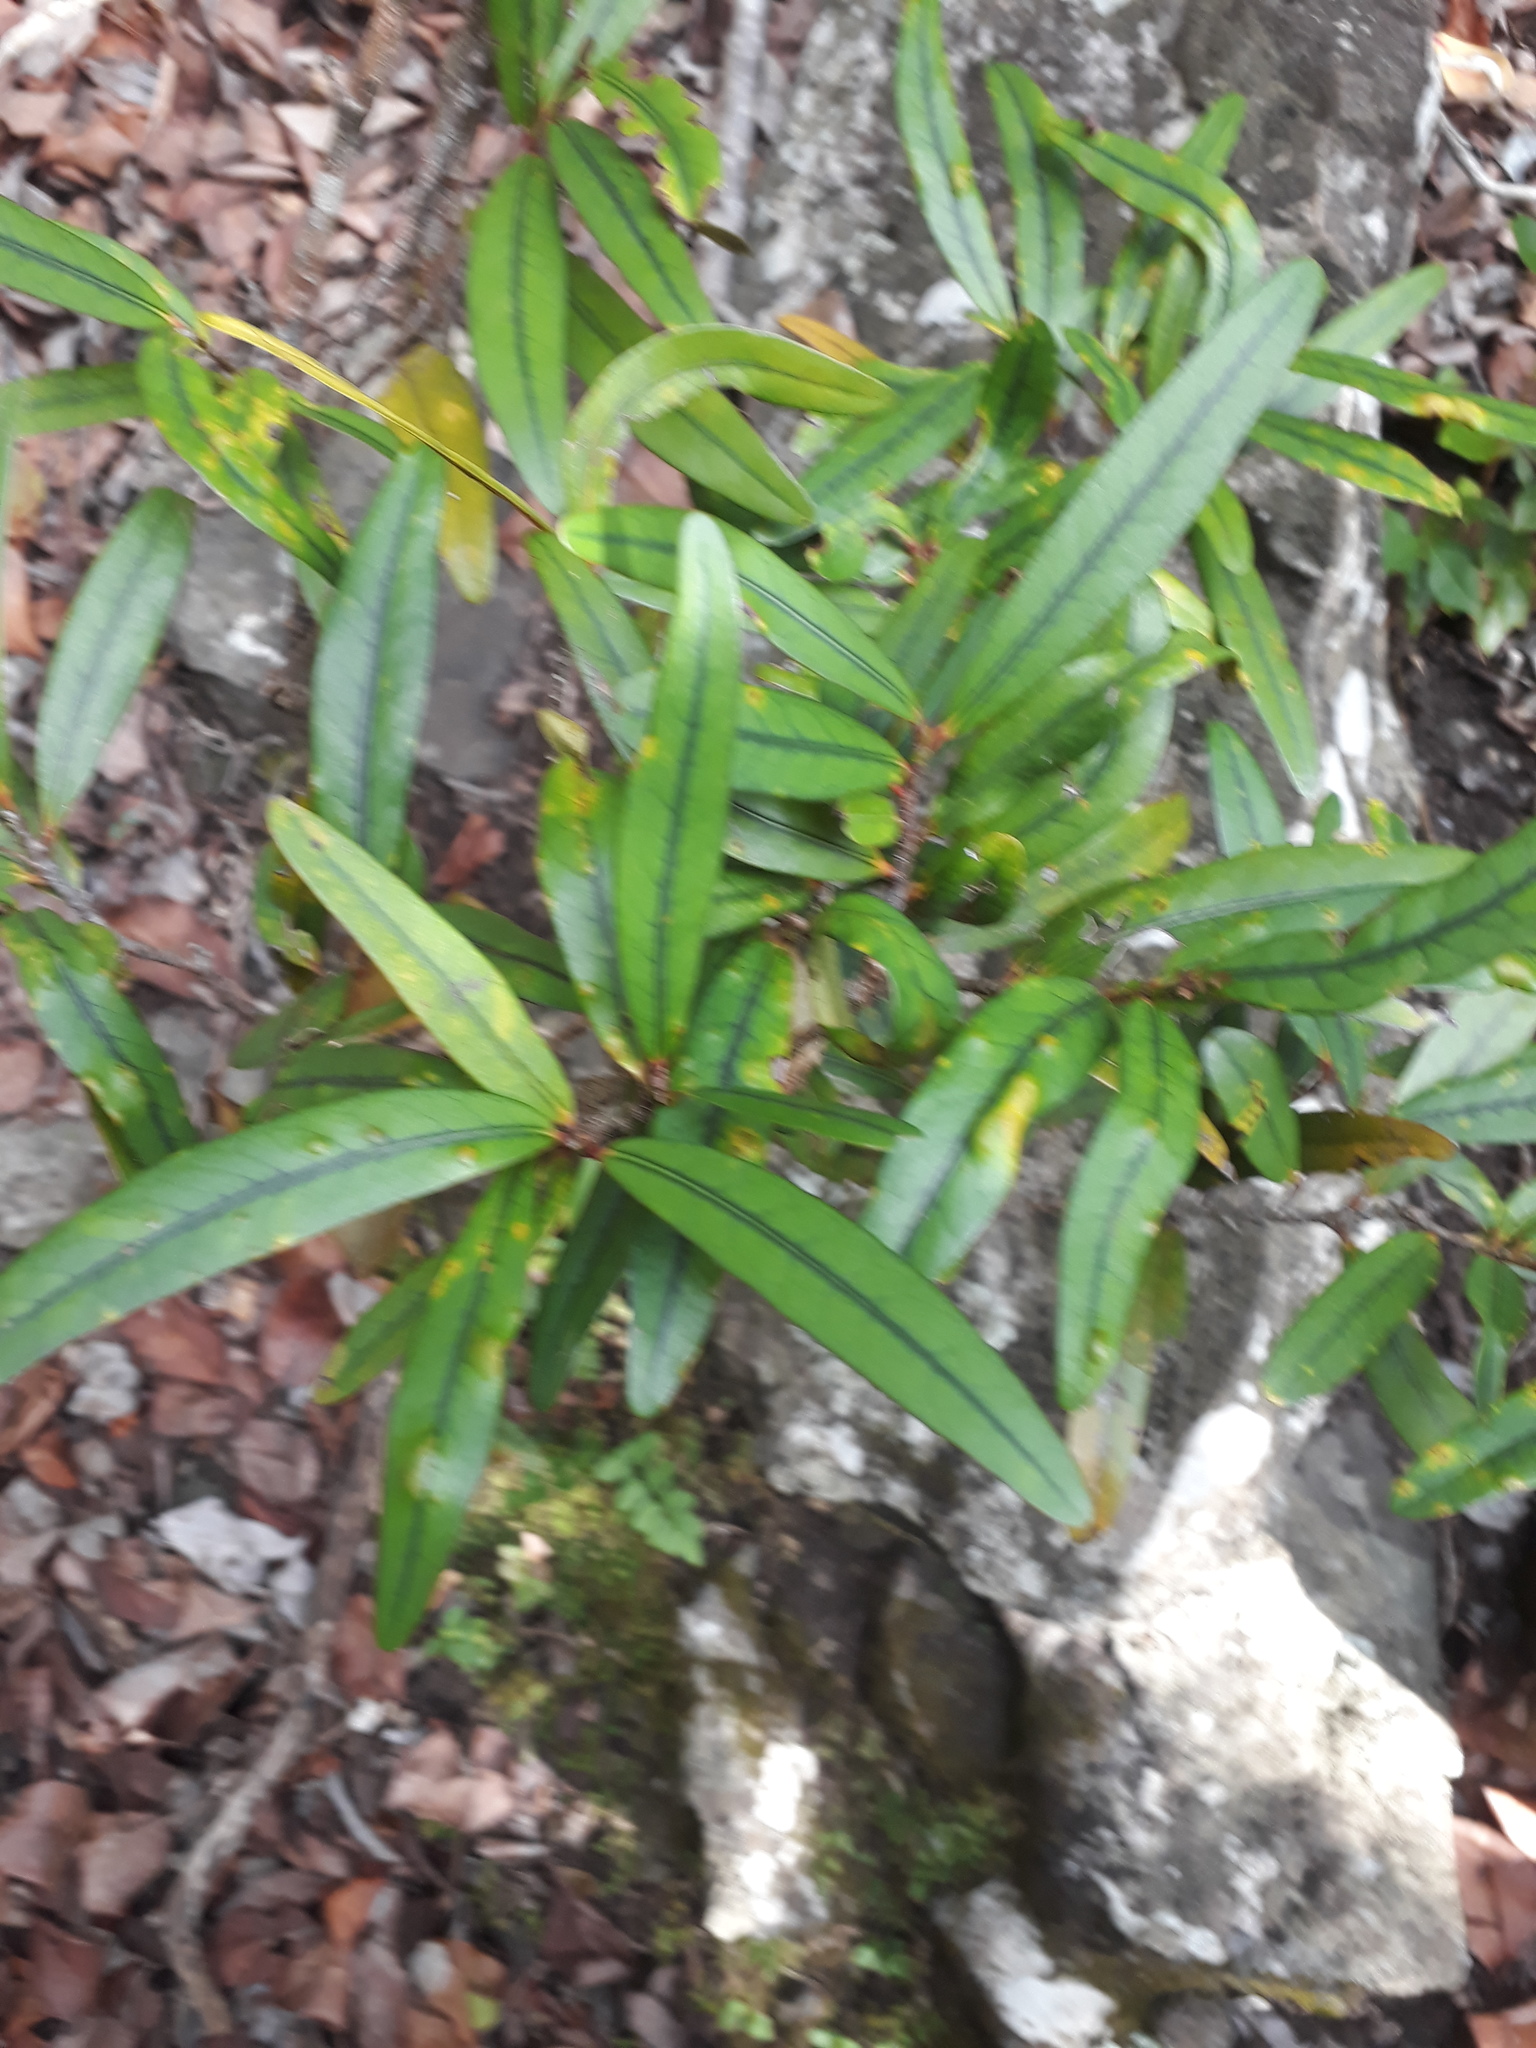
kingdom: Plantae
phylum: Tracheophyta
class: Magnoliopsida
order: Malpighiales
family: Erythroxylaceae
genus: Erythroxylum
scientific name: Erythroxylum sideroxyloides
